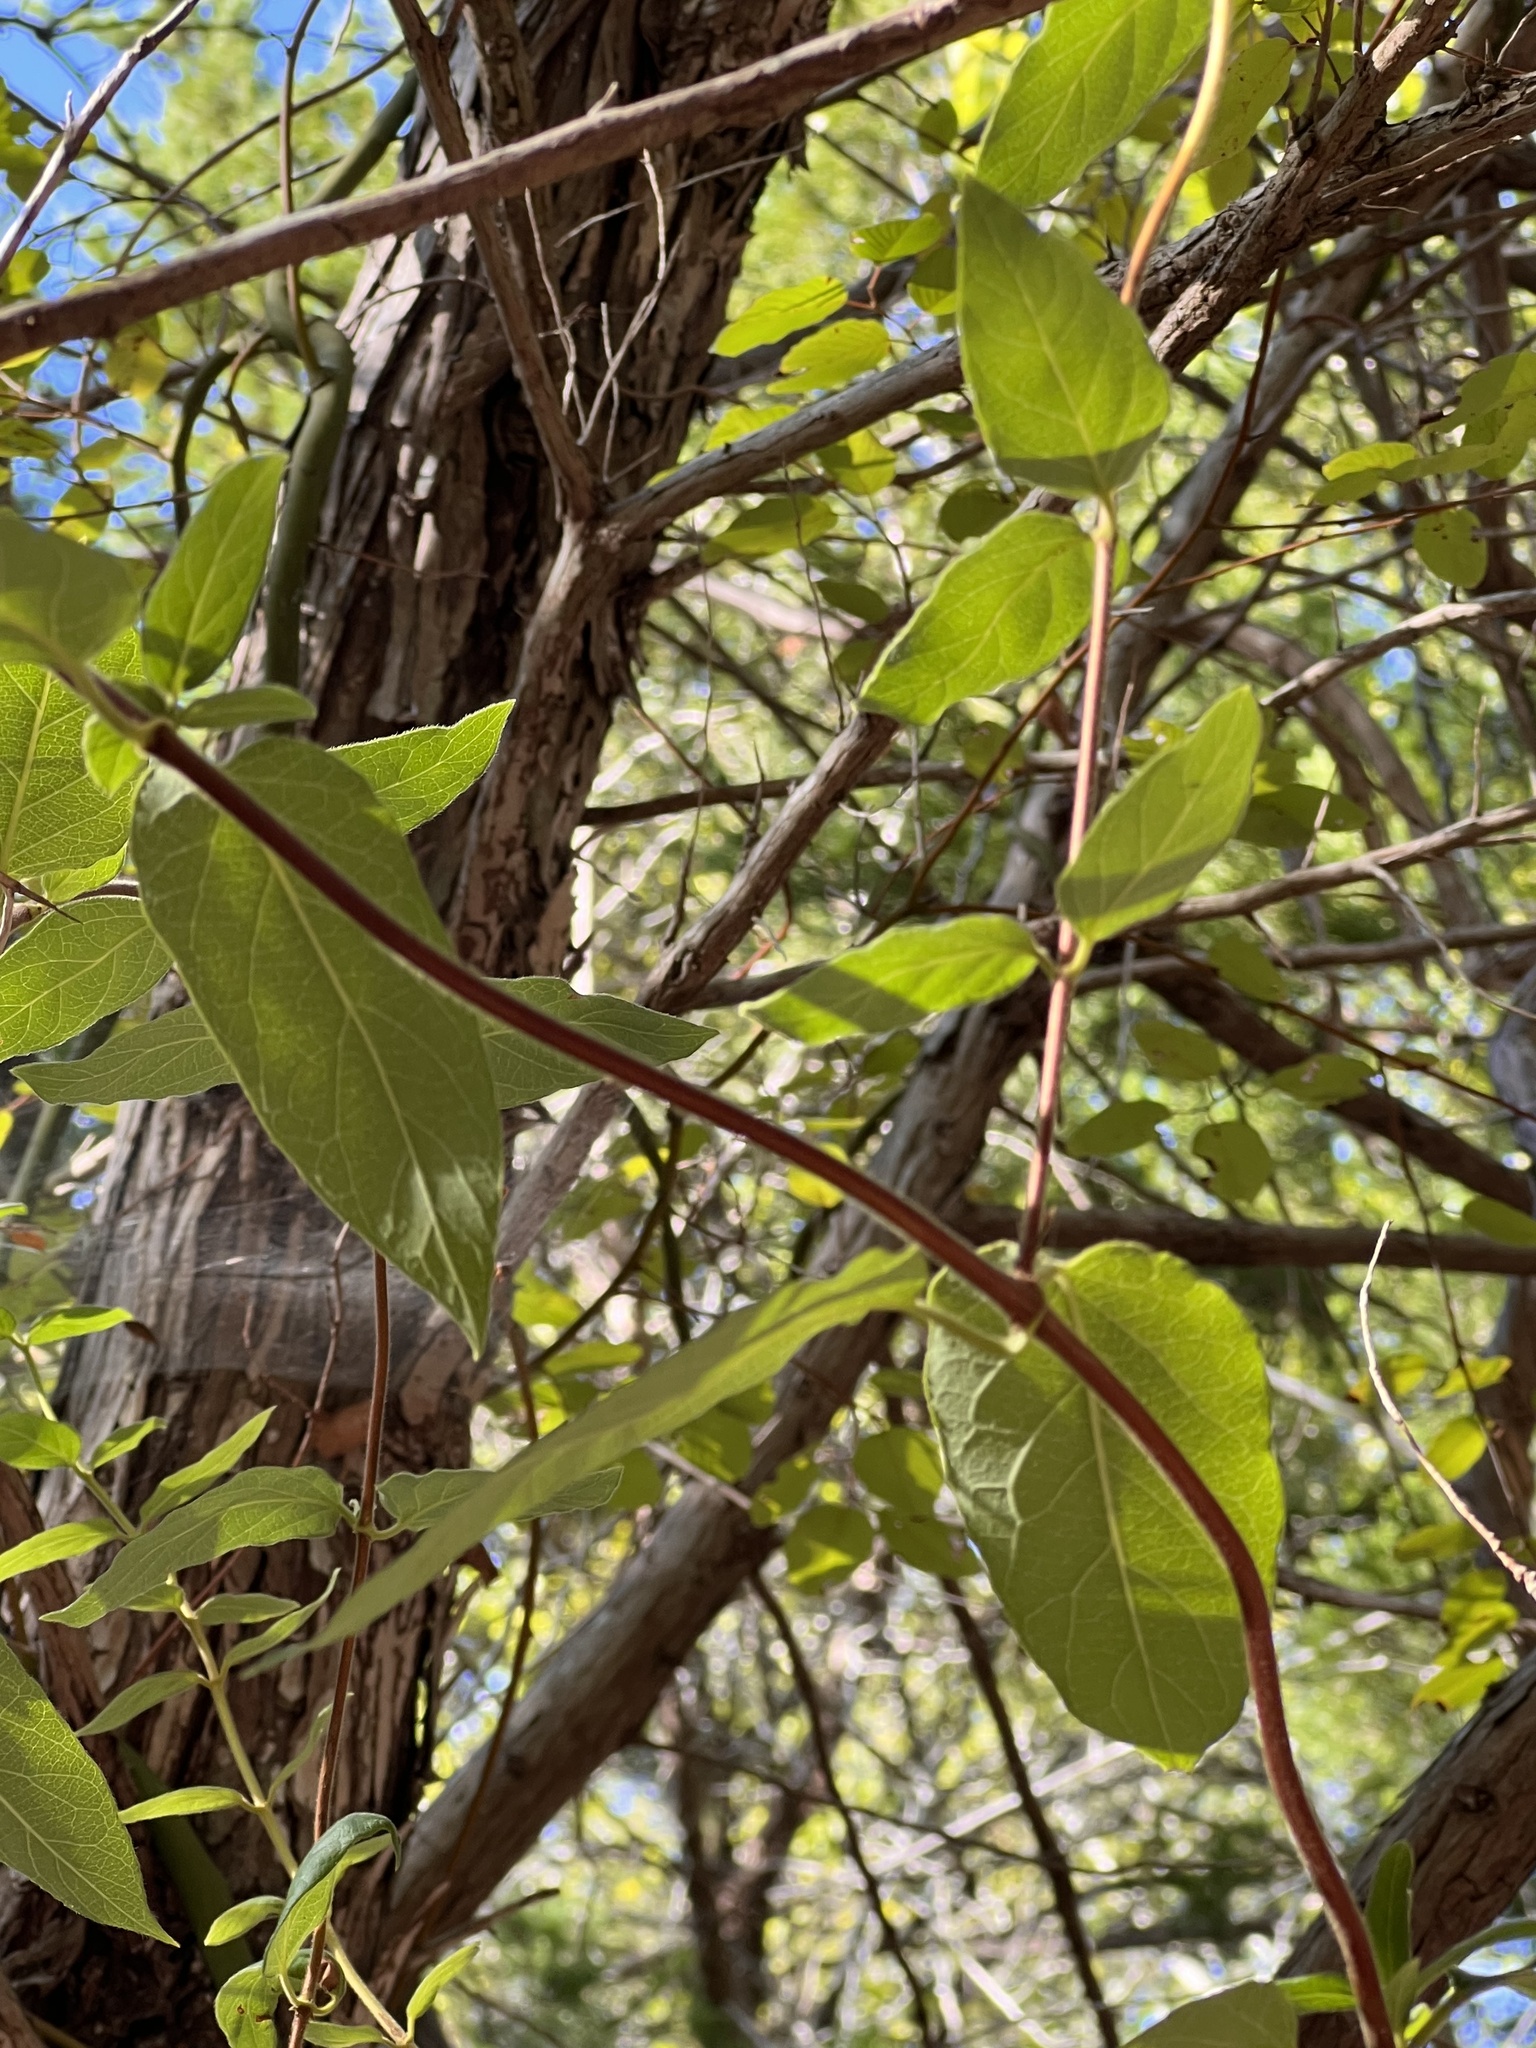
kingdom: Plantae
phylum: Tracheophyta
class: Magnoliopsida
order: Dipsacales
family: Caprifoliaceae
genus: Lonicera
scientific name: Lonicera japonica
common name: Japanese honeysuckle
